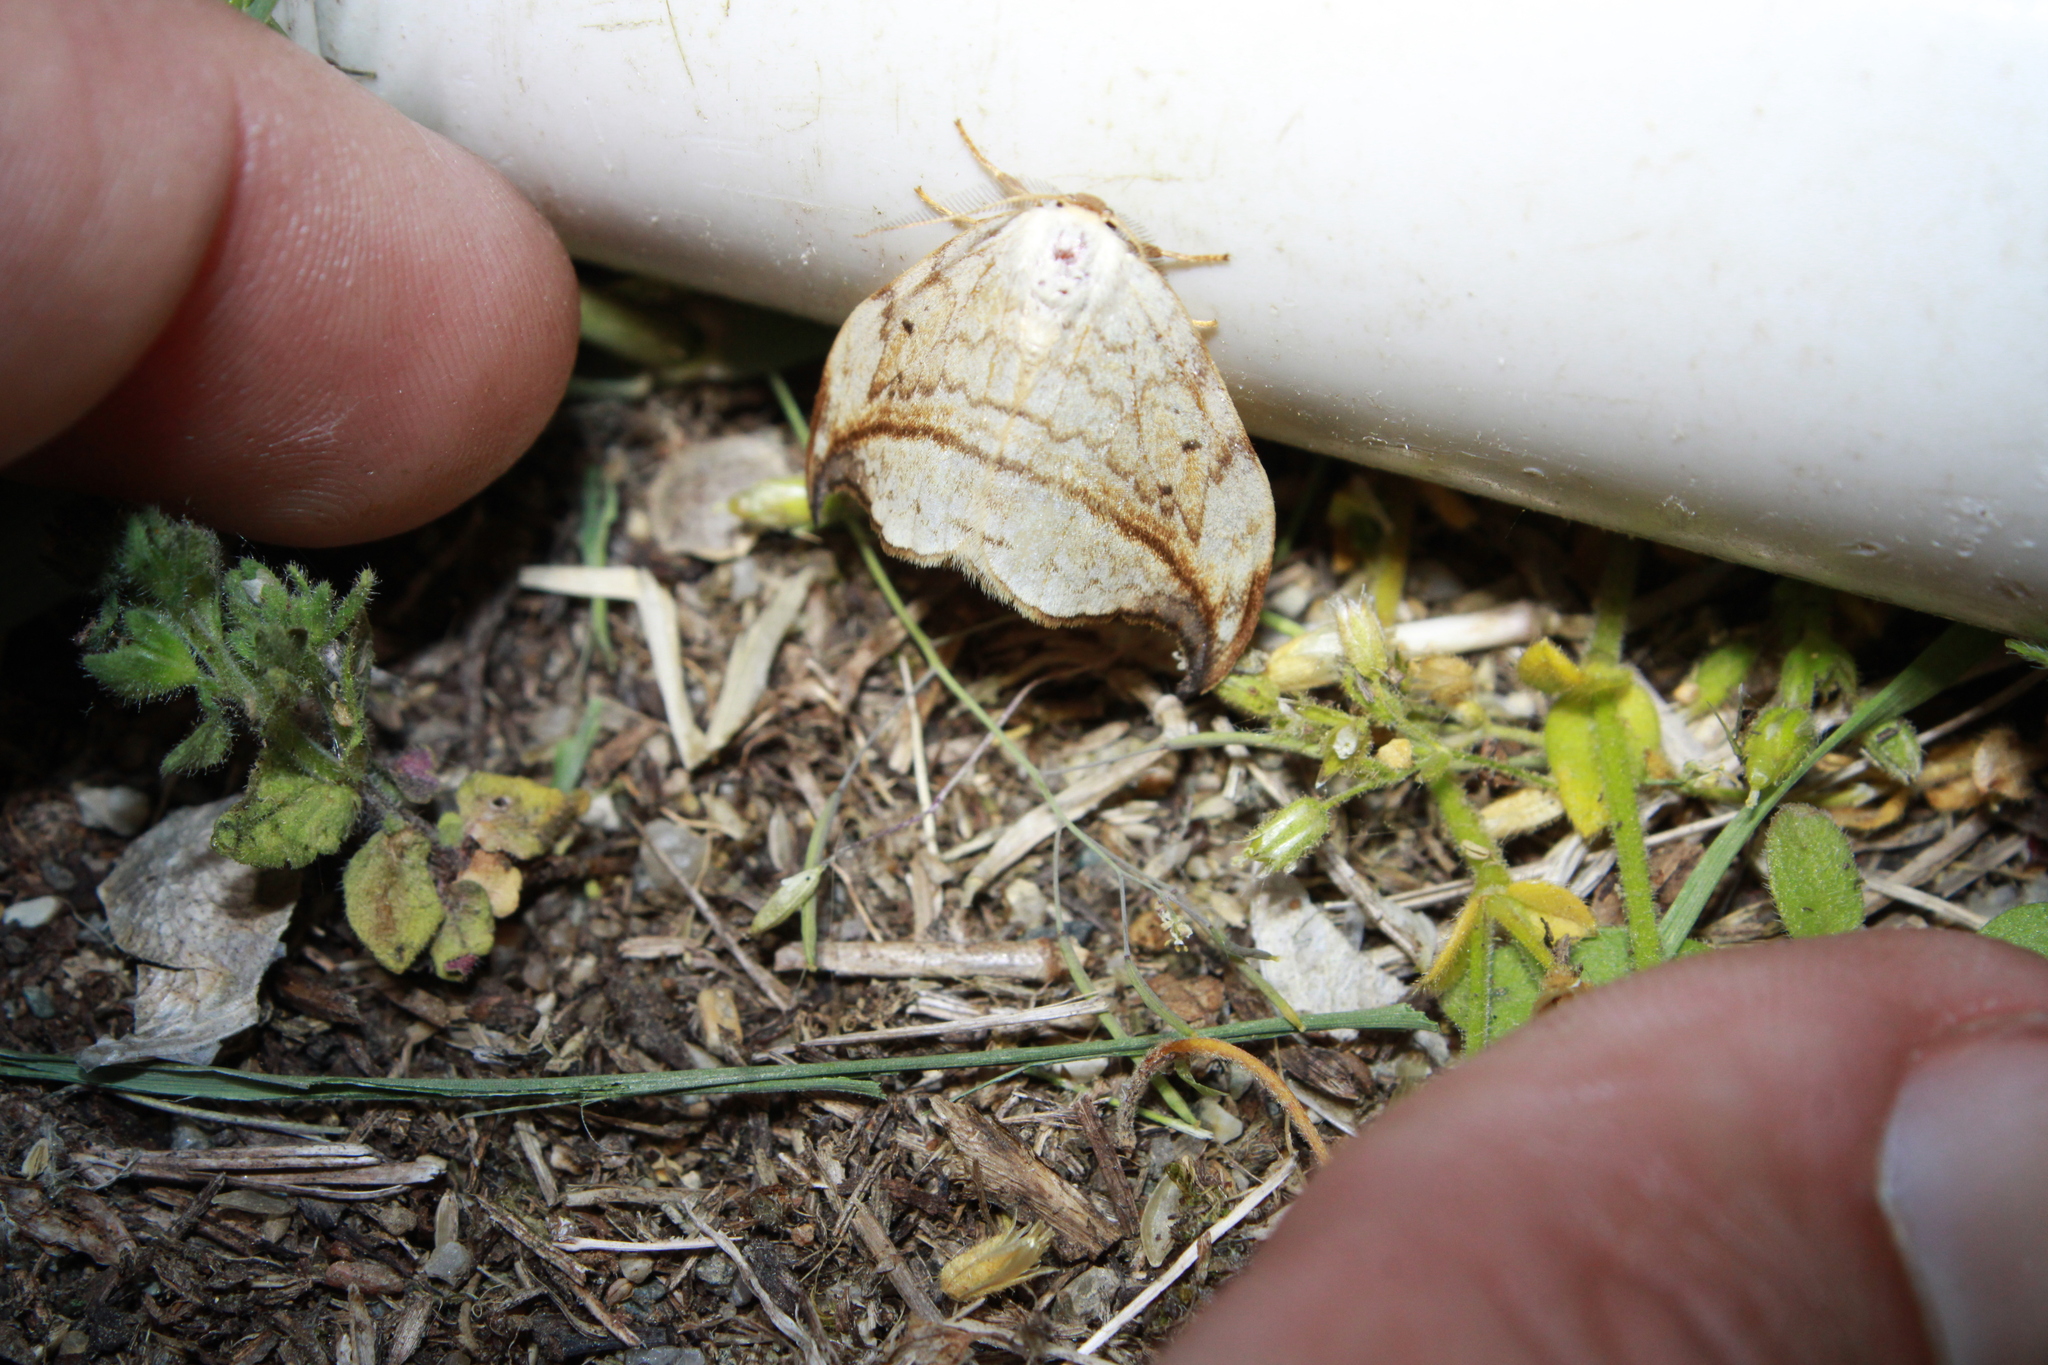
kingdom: Animalia
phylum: Arthropoda
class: Insecta
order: Lepidoptera
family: Drepanidae
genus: Drepana
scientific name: Drepana arcuata
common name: Arched hooktip moth
